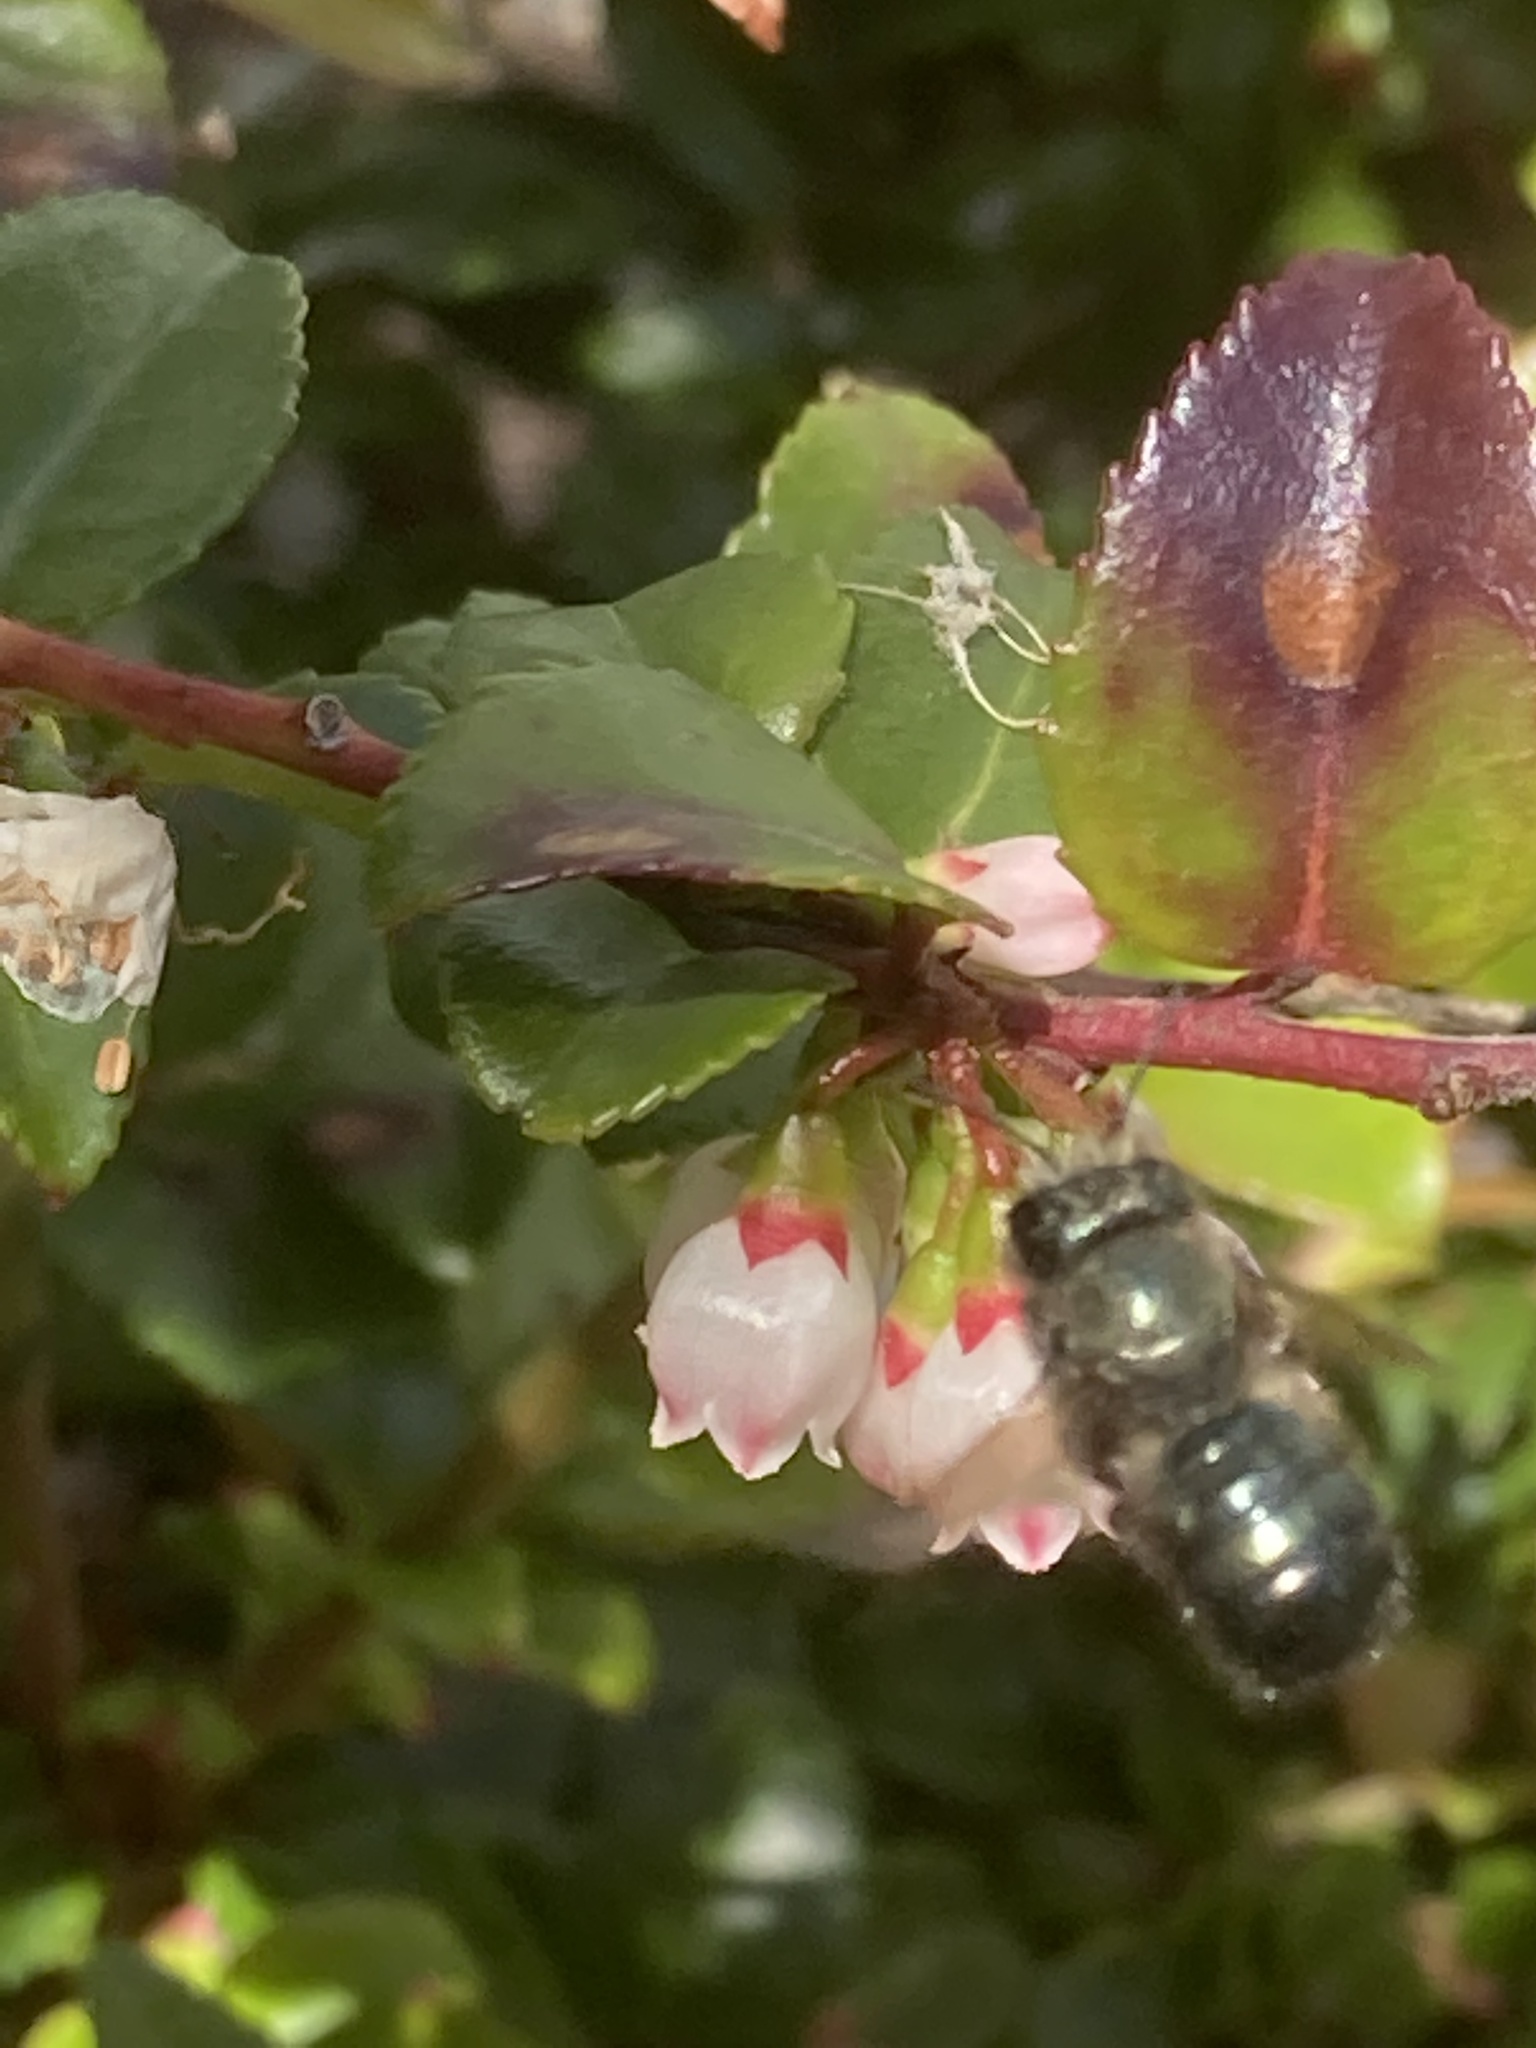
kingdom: Animalia
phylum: Arthropoda
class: Insecta
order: Hymenoptera
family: Megachilidae
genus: Osmia
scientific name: Osmia lignaria
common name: Blue orchard bee
